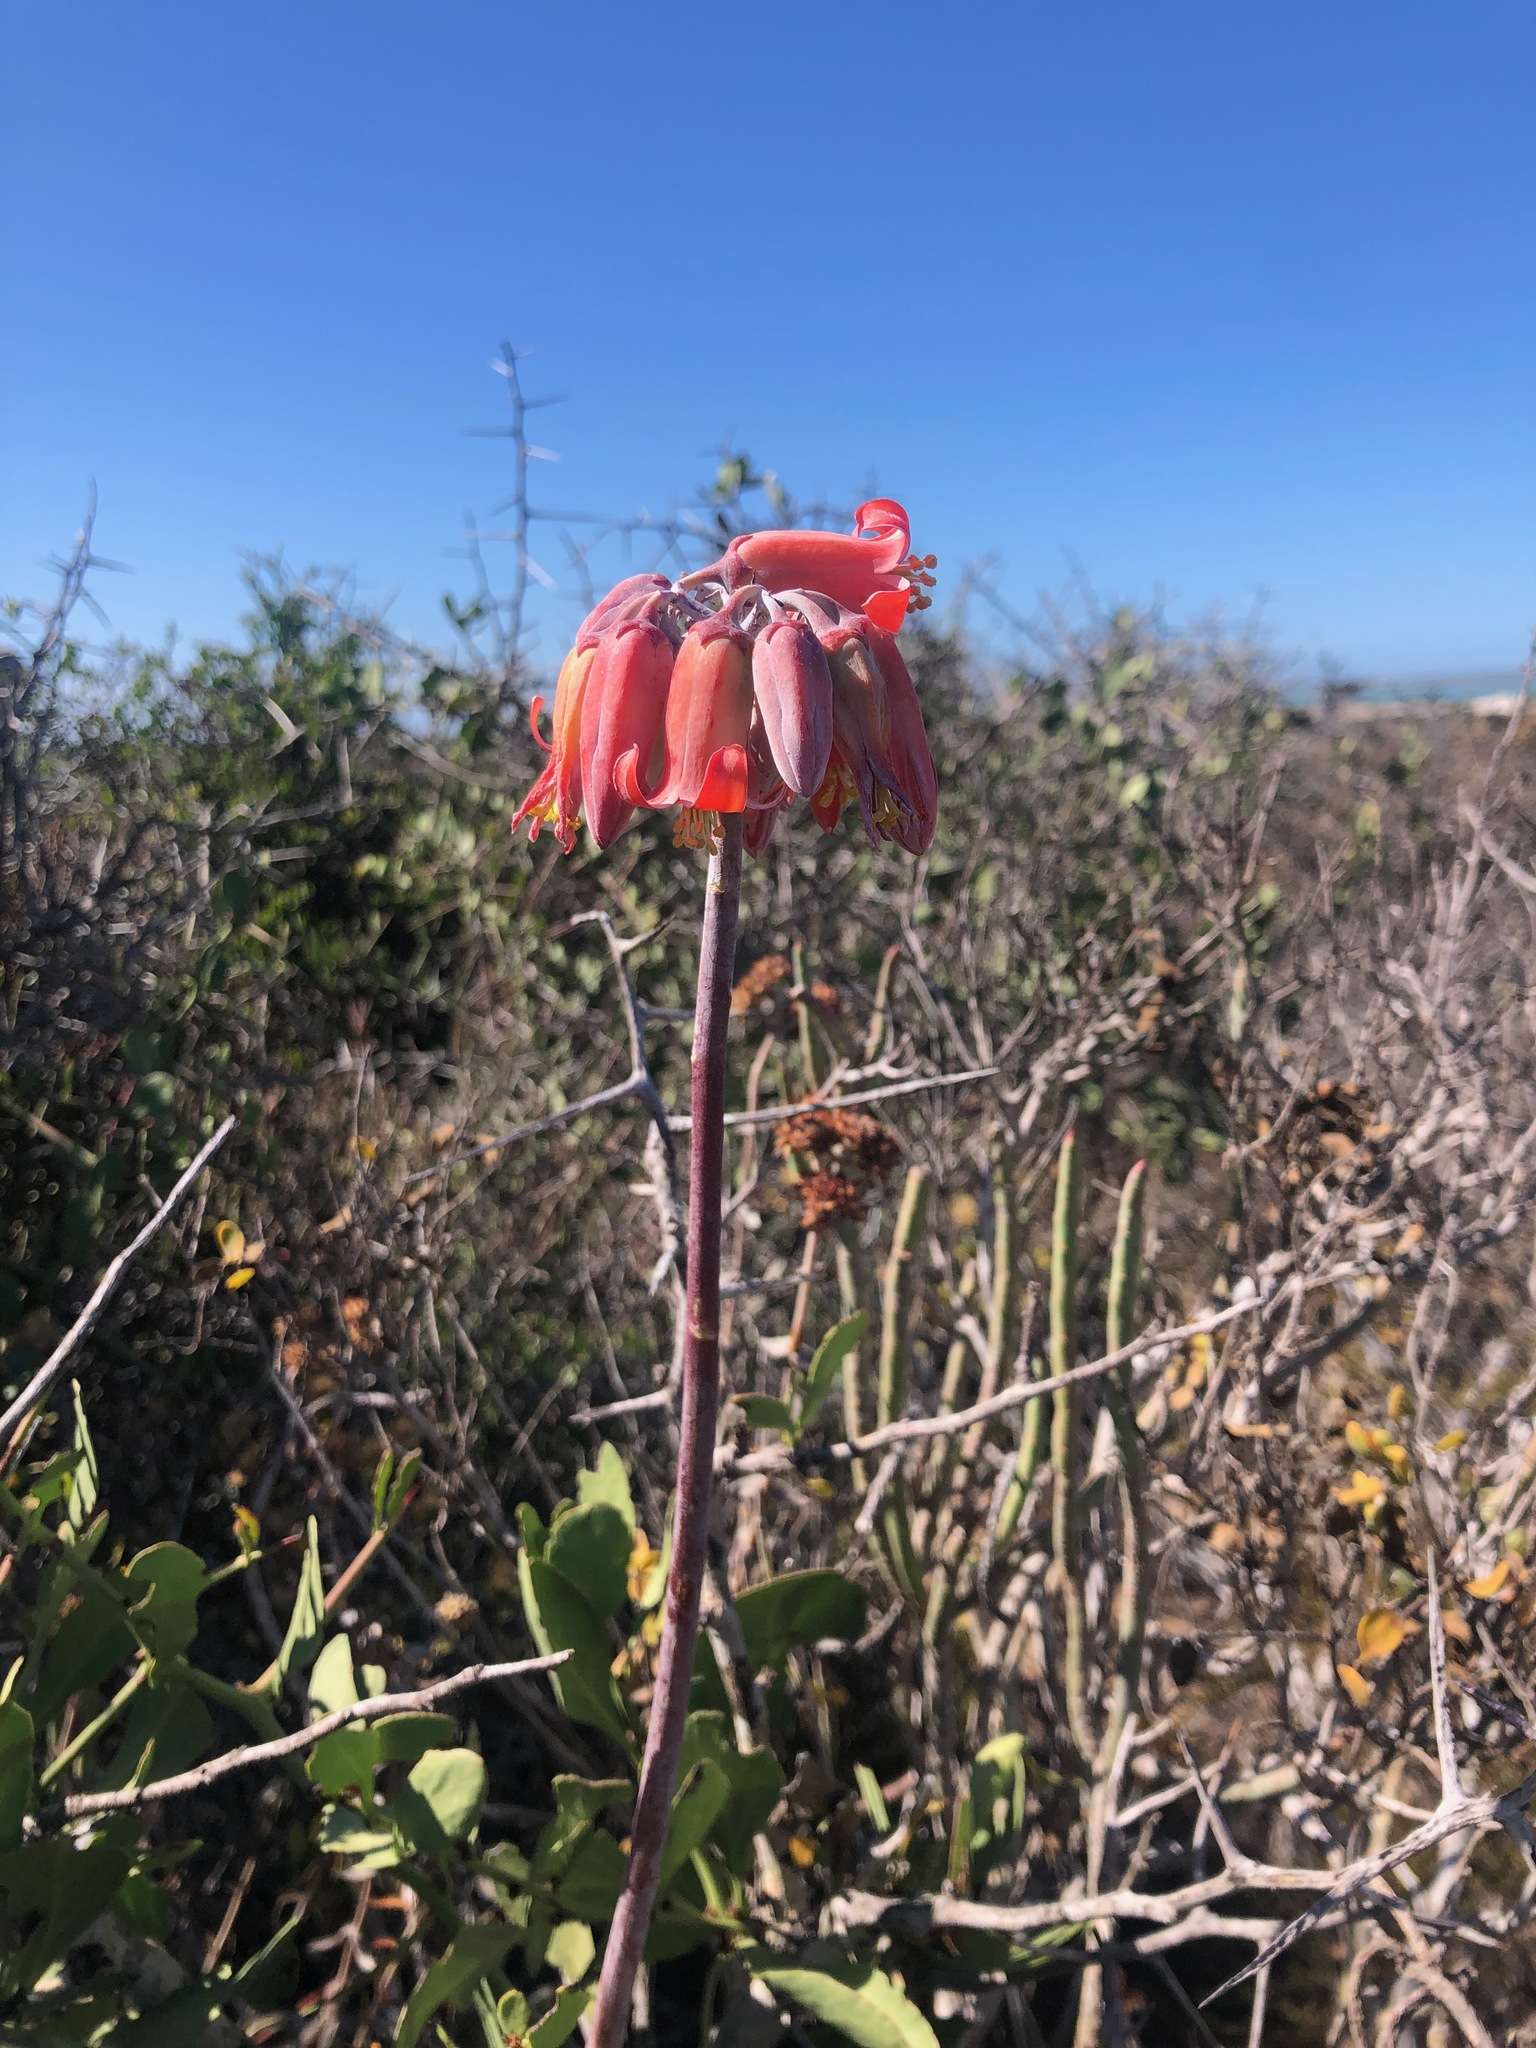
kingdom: Plantae
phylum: Tracheophyta
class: Magnoliopsida
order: Saxifragales
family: Crassulaceae
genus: Cotyledon
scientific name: Cotyledon orbiculata
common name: Pig's ear
